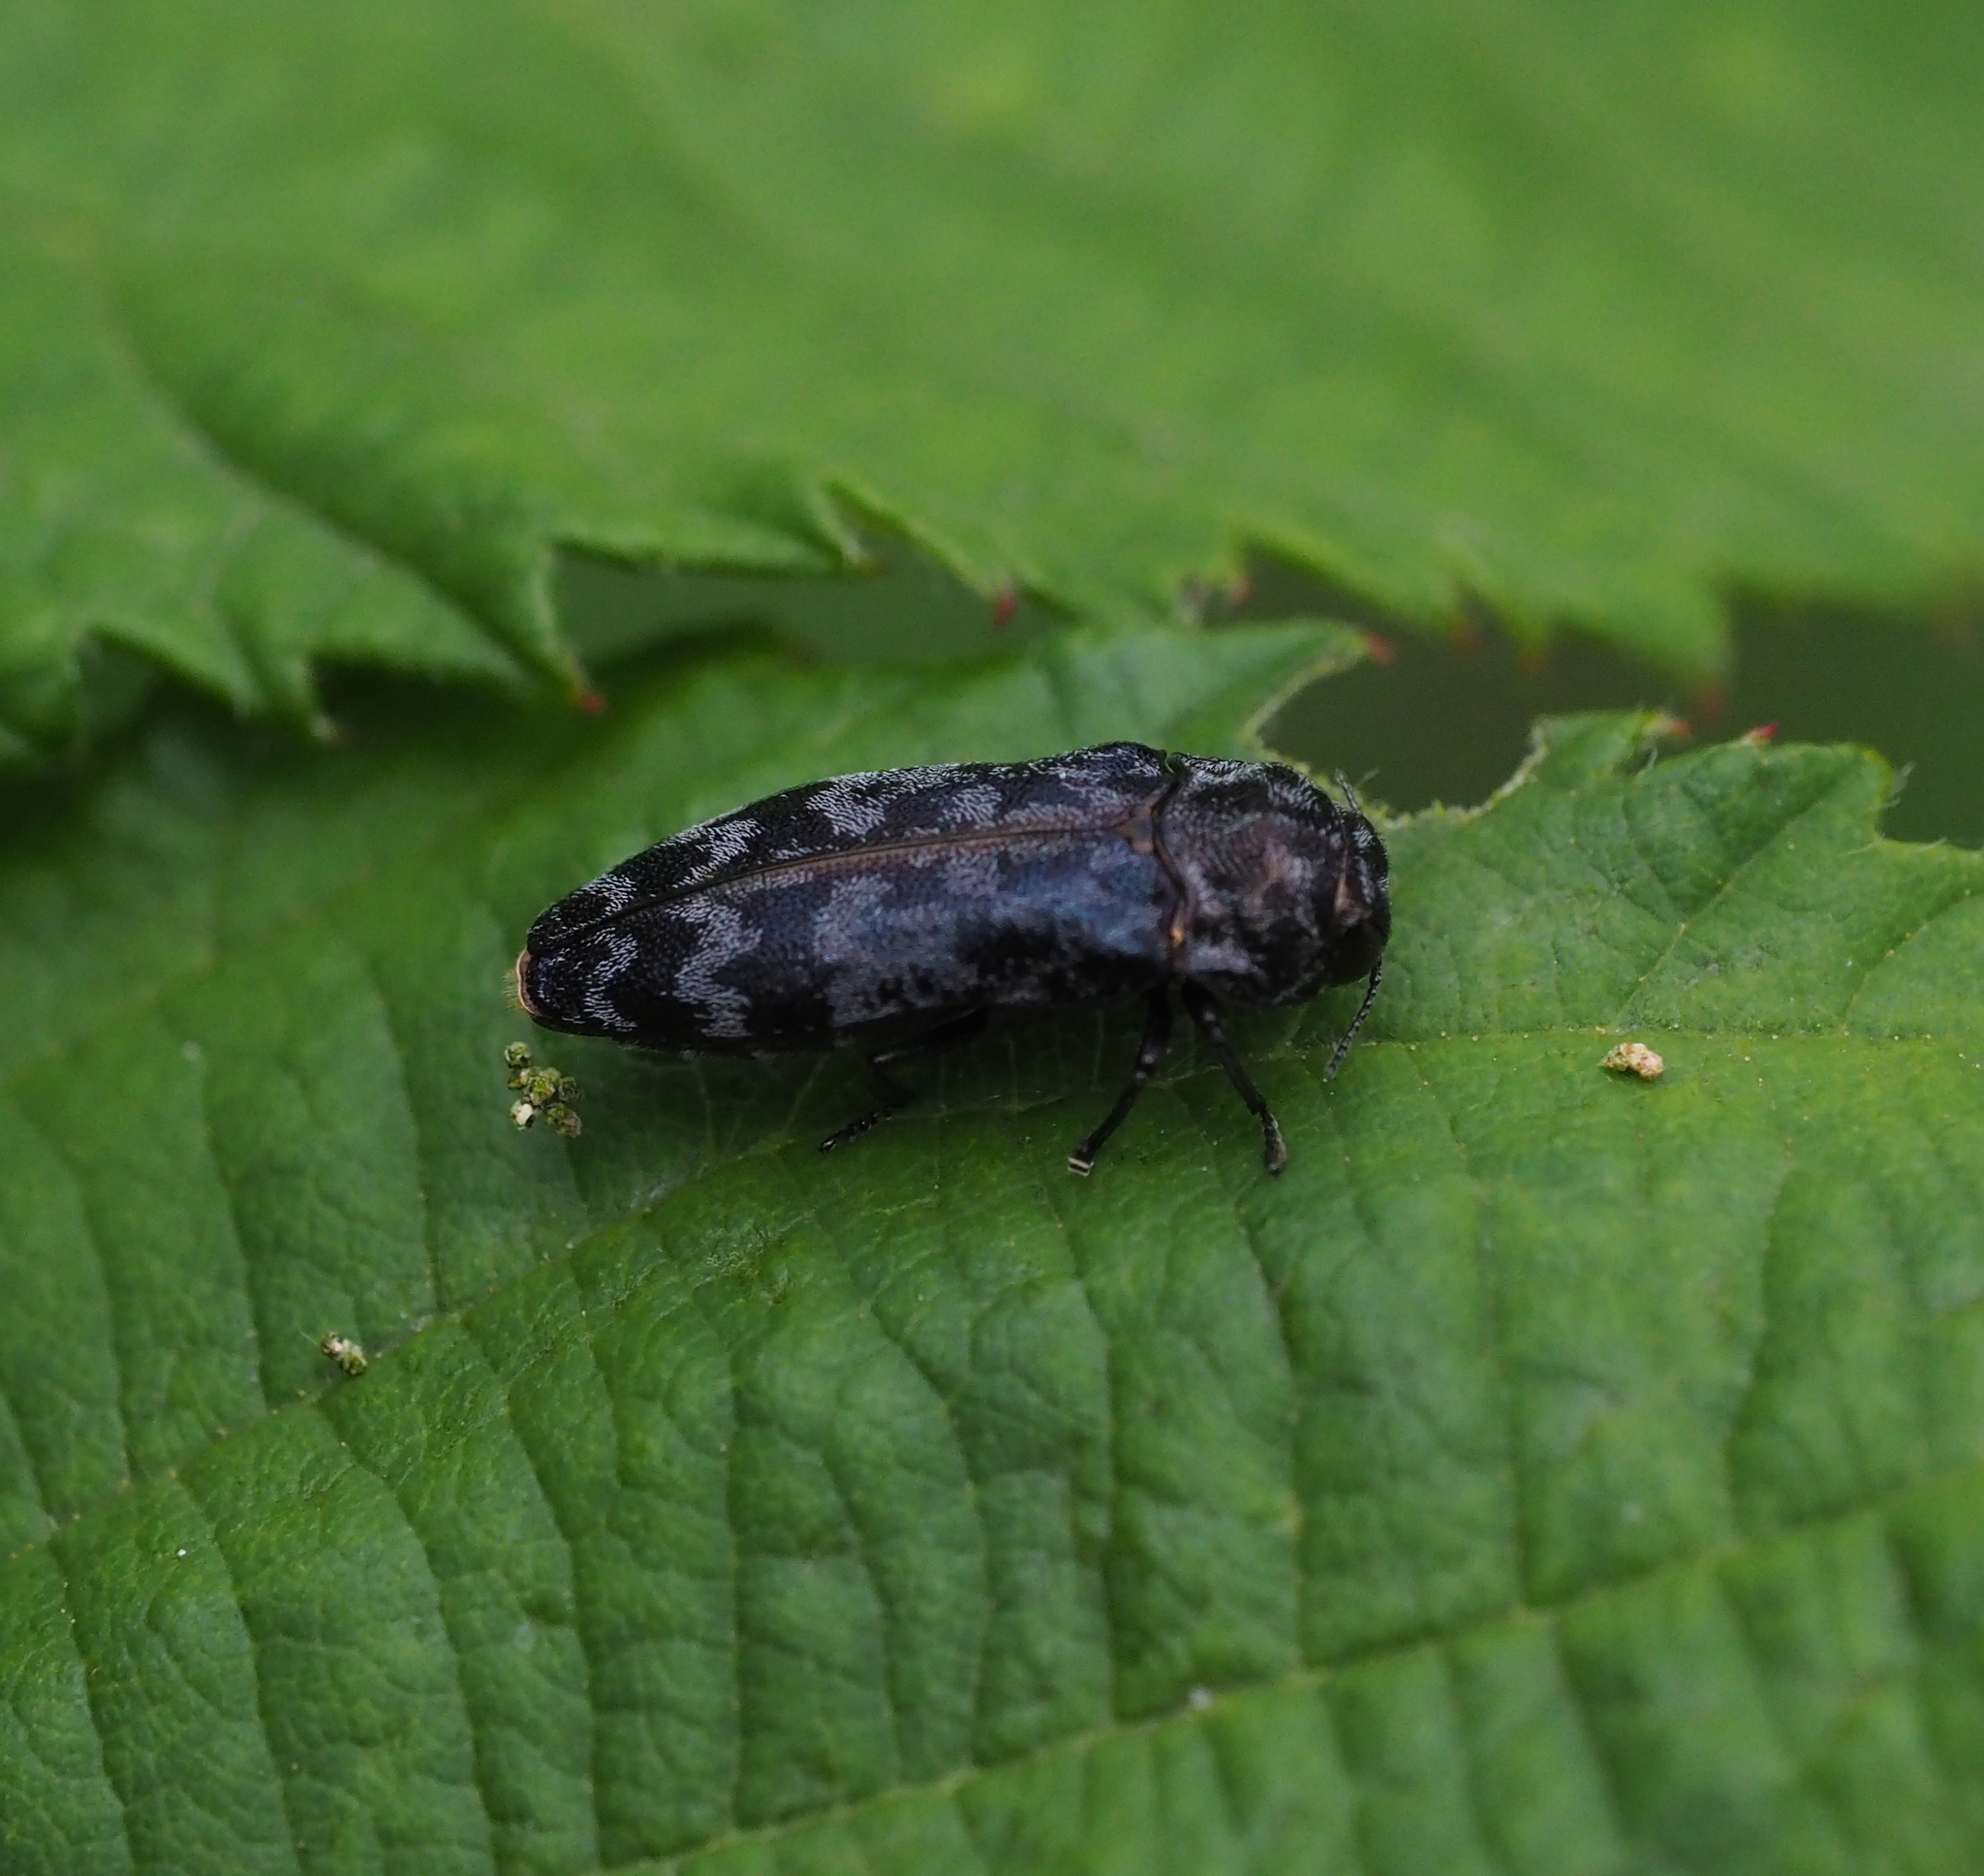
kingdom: Animalia
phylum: Arthropoda
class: Insecta
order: Coleoptera
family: Buprestidae
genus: Coraebus
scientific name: Coraebus rubi
